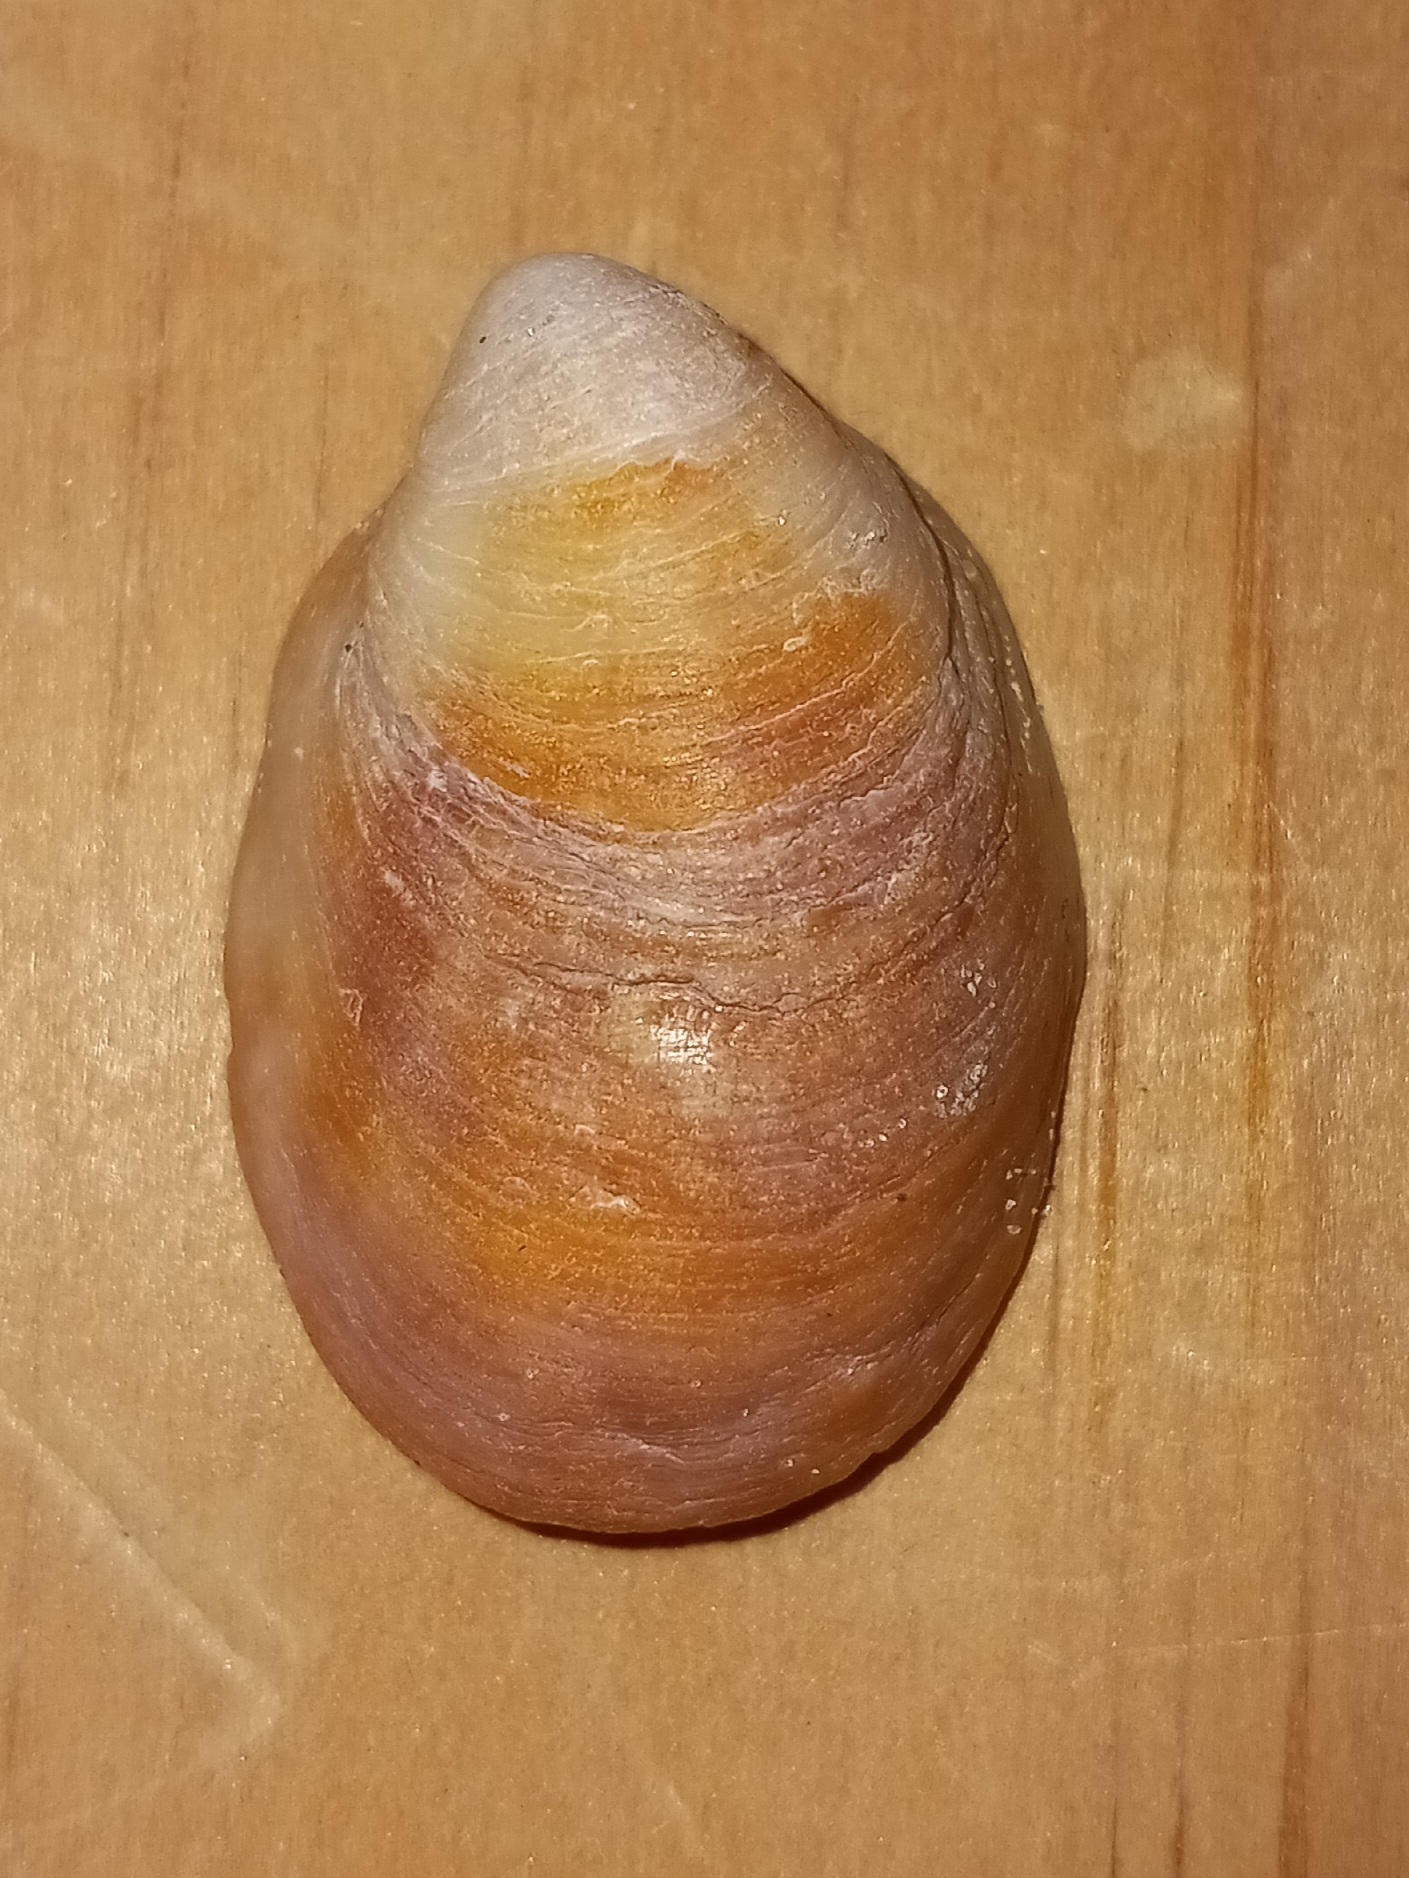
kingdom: Animalia
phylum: Mollusca
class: Gastropoda
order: Littorinimorpha
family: Calyptraeidae
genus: Crepidula
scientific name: Crepidula fornicata
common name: Slipper limpet
